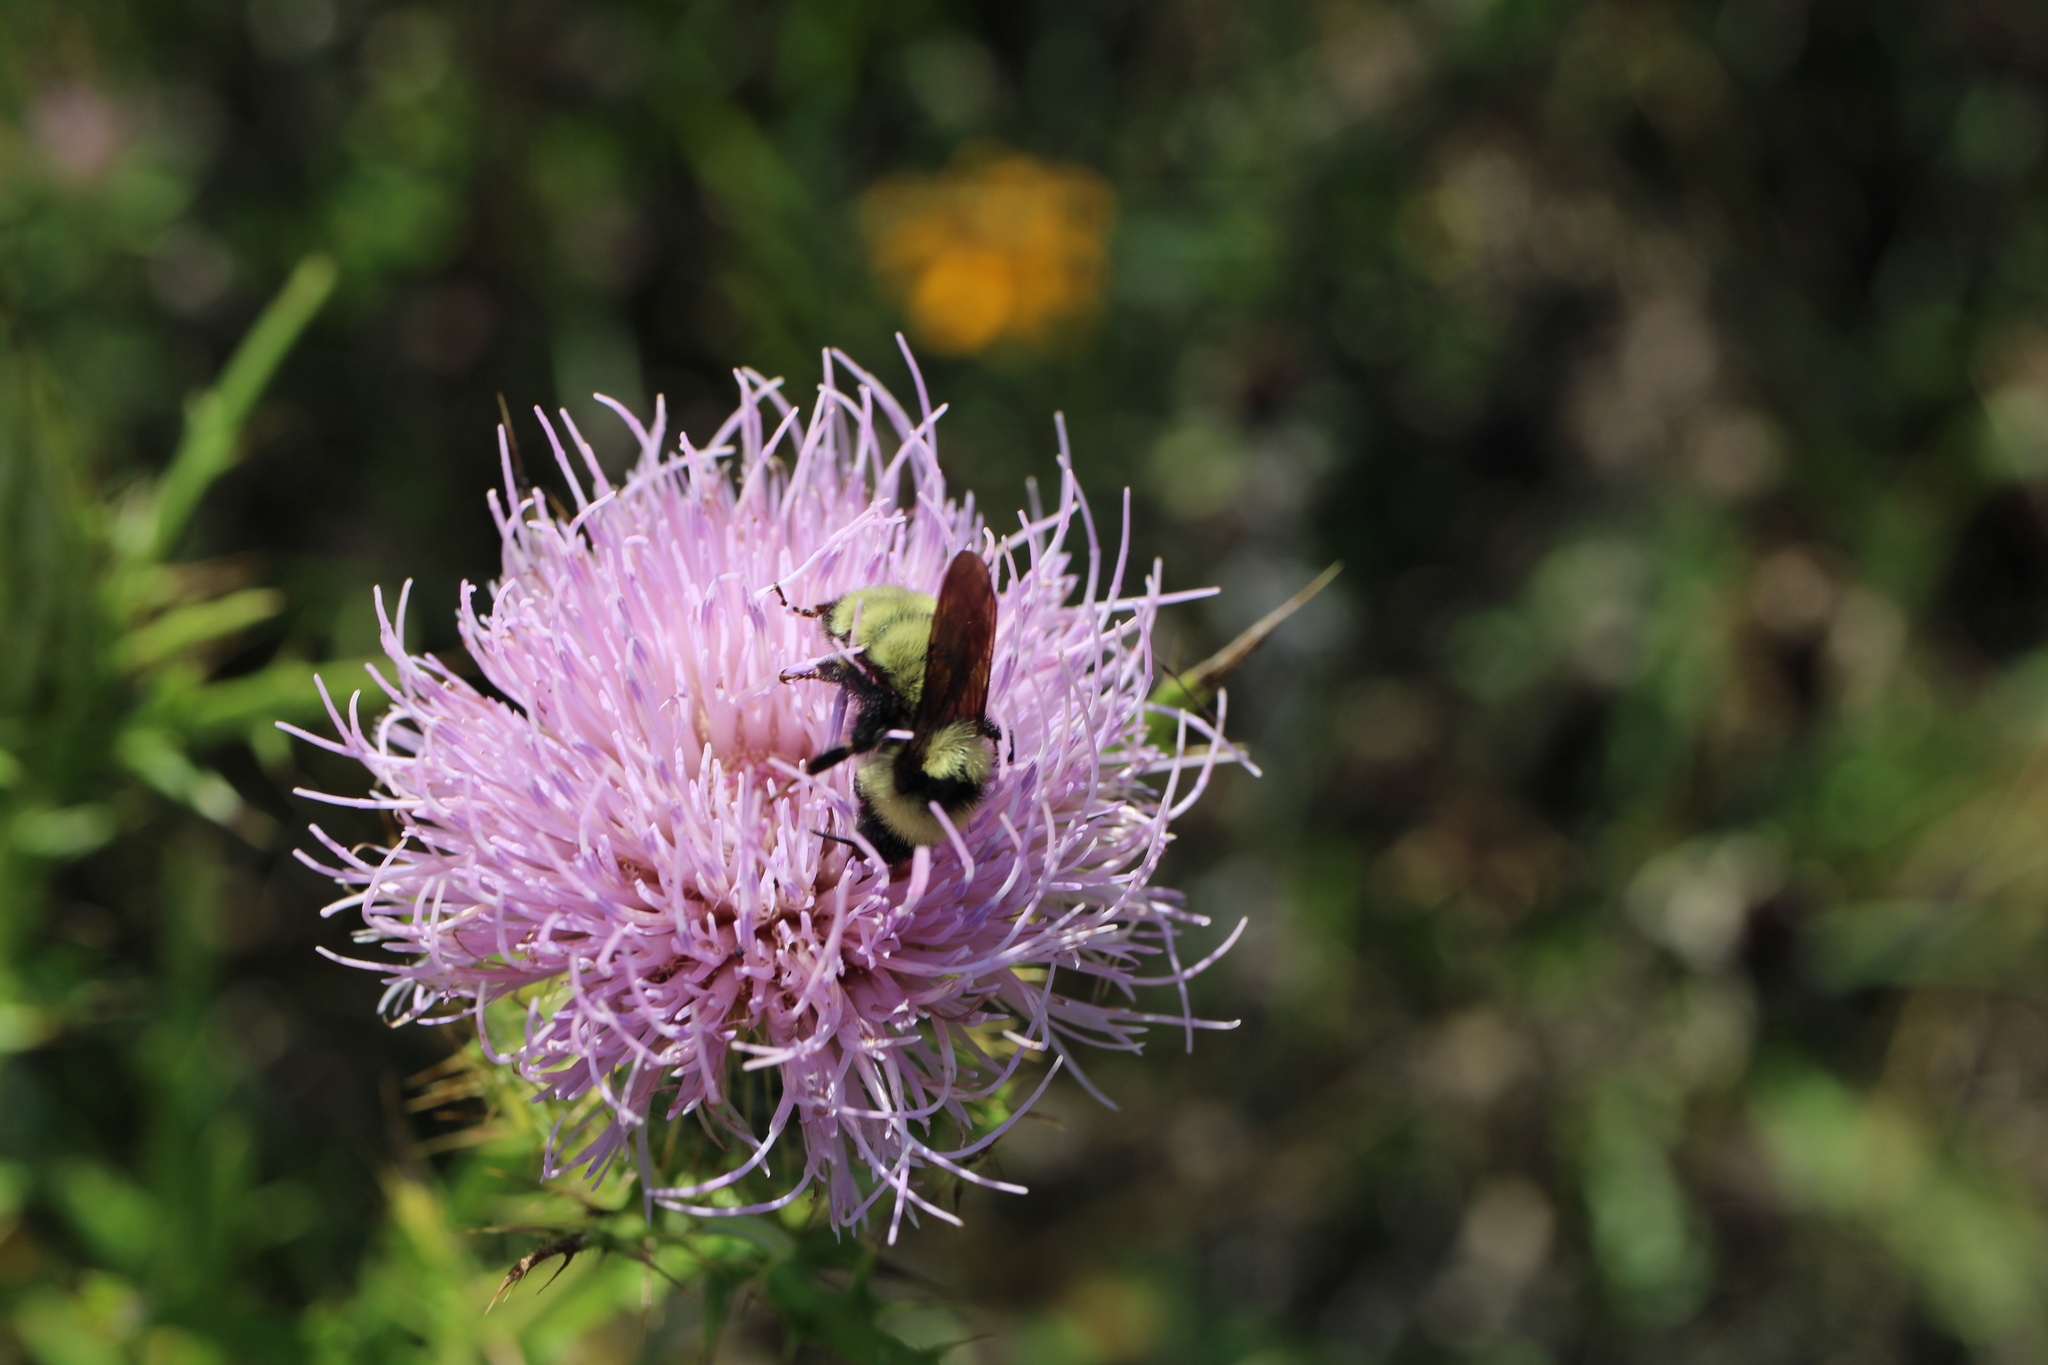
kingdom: Animalia
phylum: Arthropoda
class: Insecta
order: Hymenoptera
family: Apidae
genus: Bombus
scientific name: Bombus fervidus
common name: Yellow bumble bee
